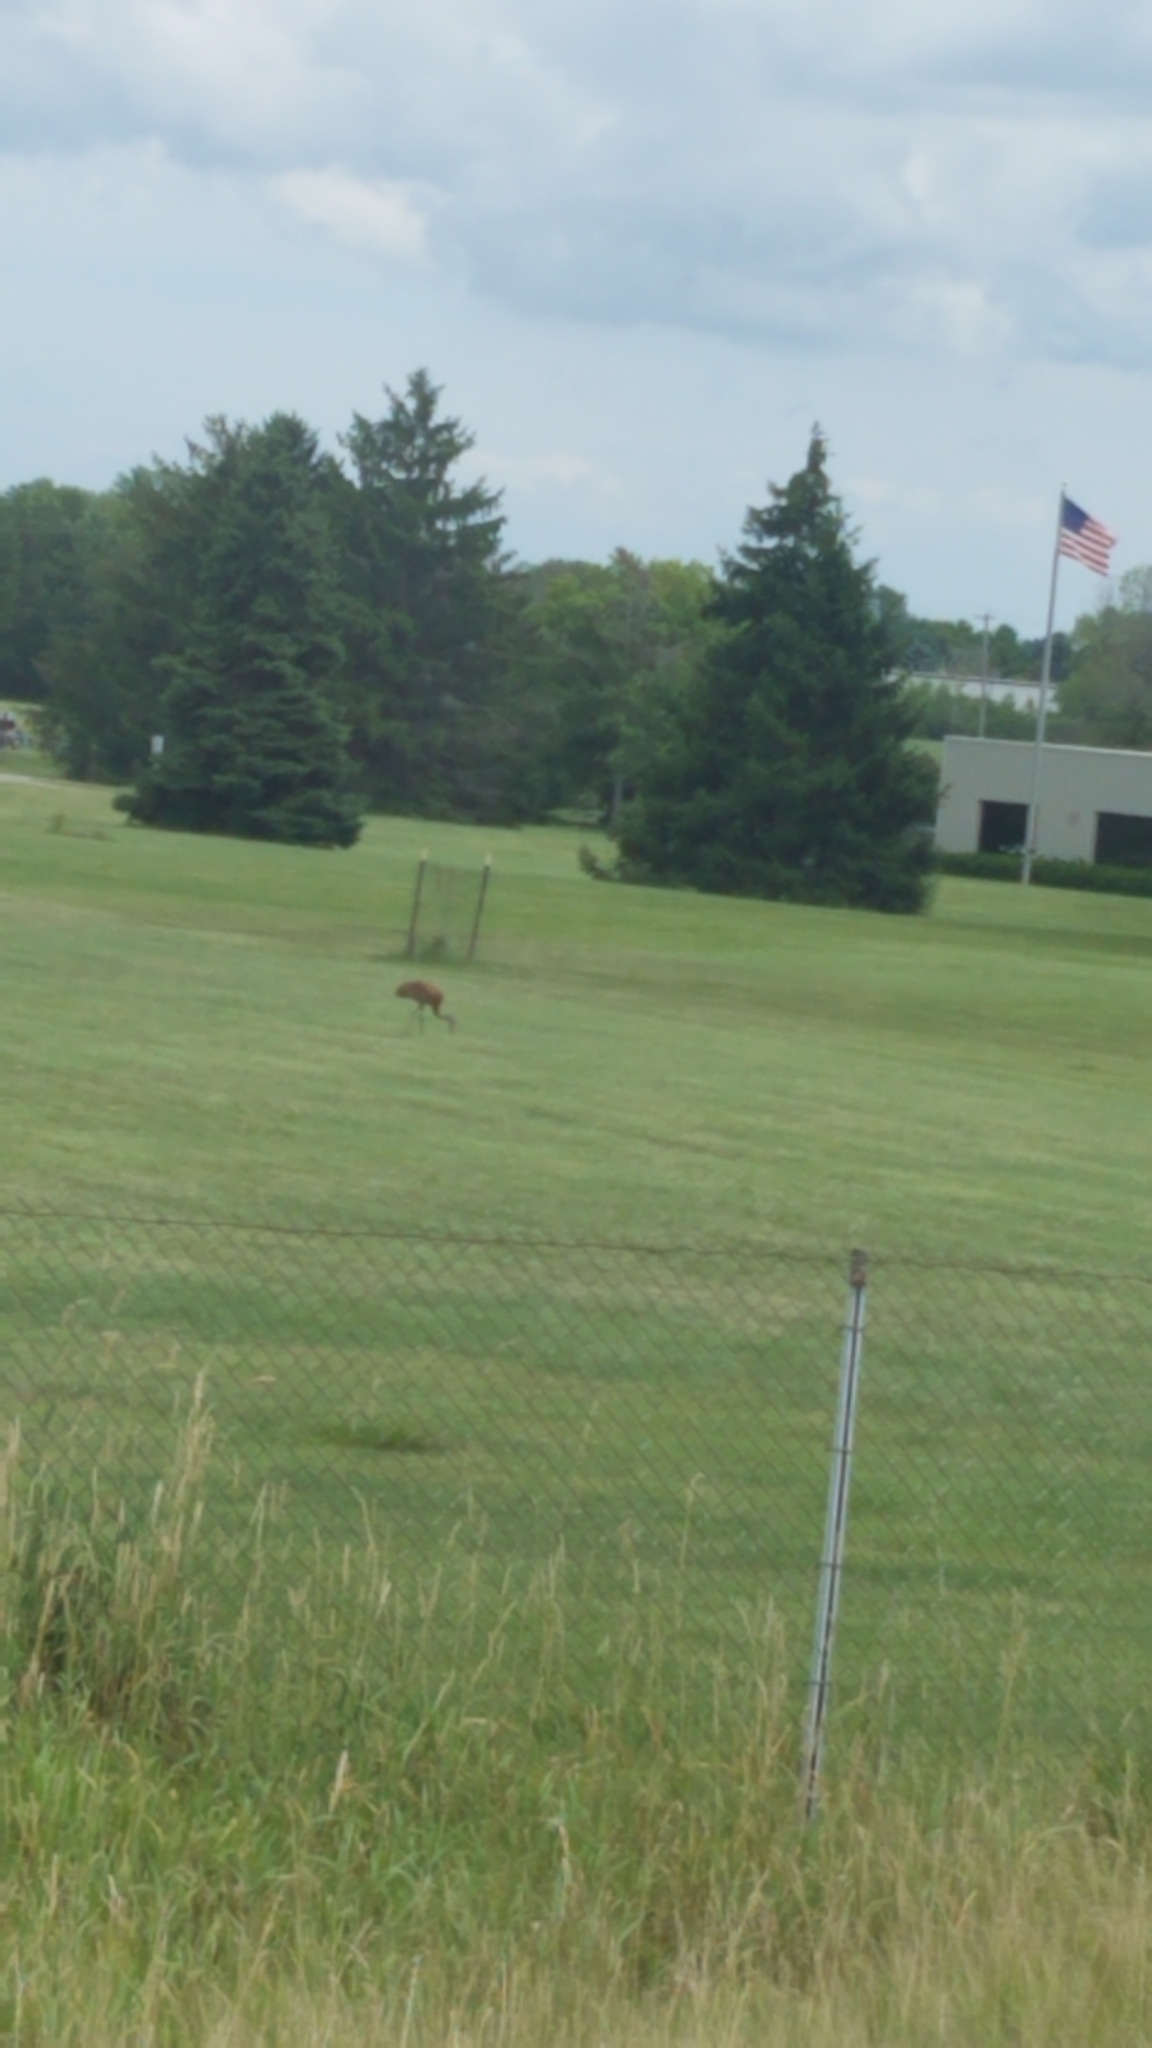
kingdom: Animalia
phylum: Chordata
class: Aves
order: Gruiformes
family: Gruidae
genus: Grus
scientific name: Grus canadensis
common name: Sandhill crane
